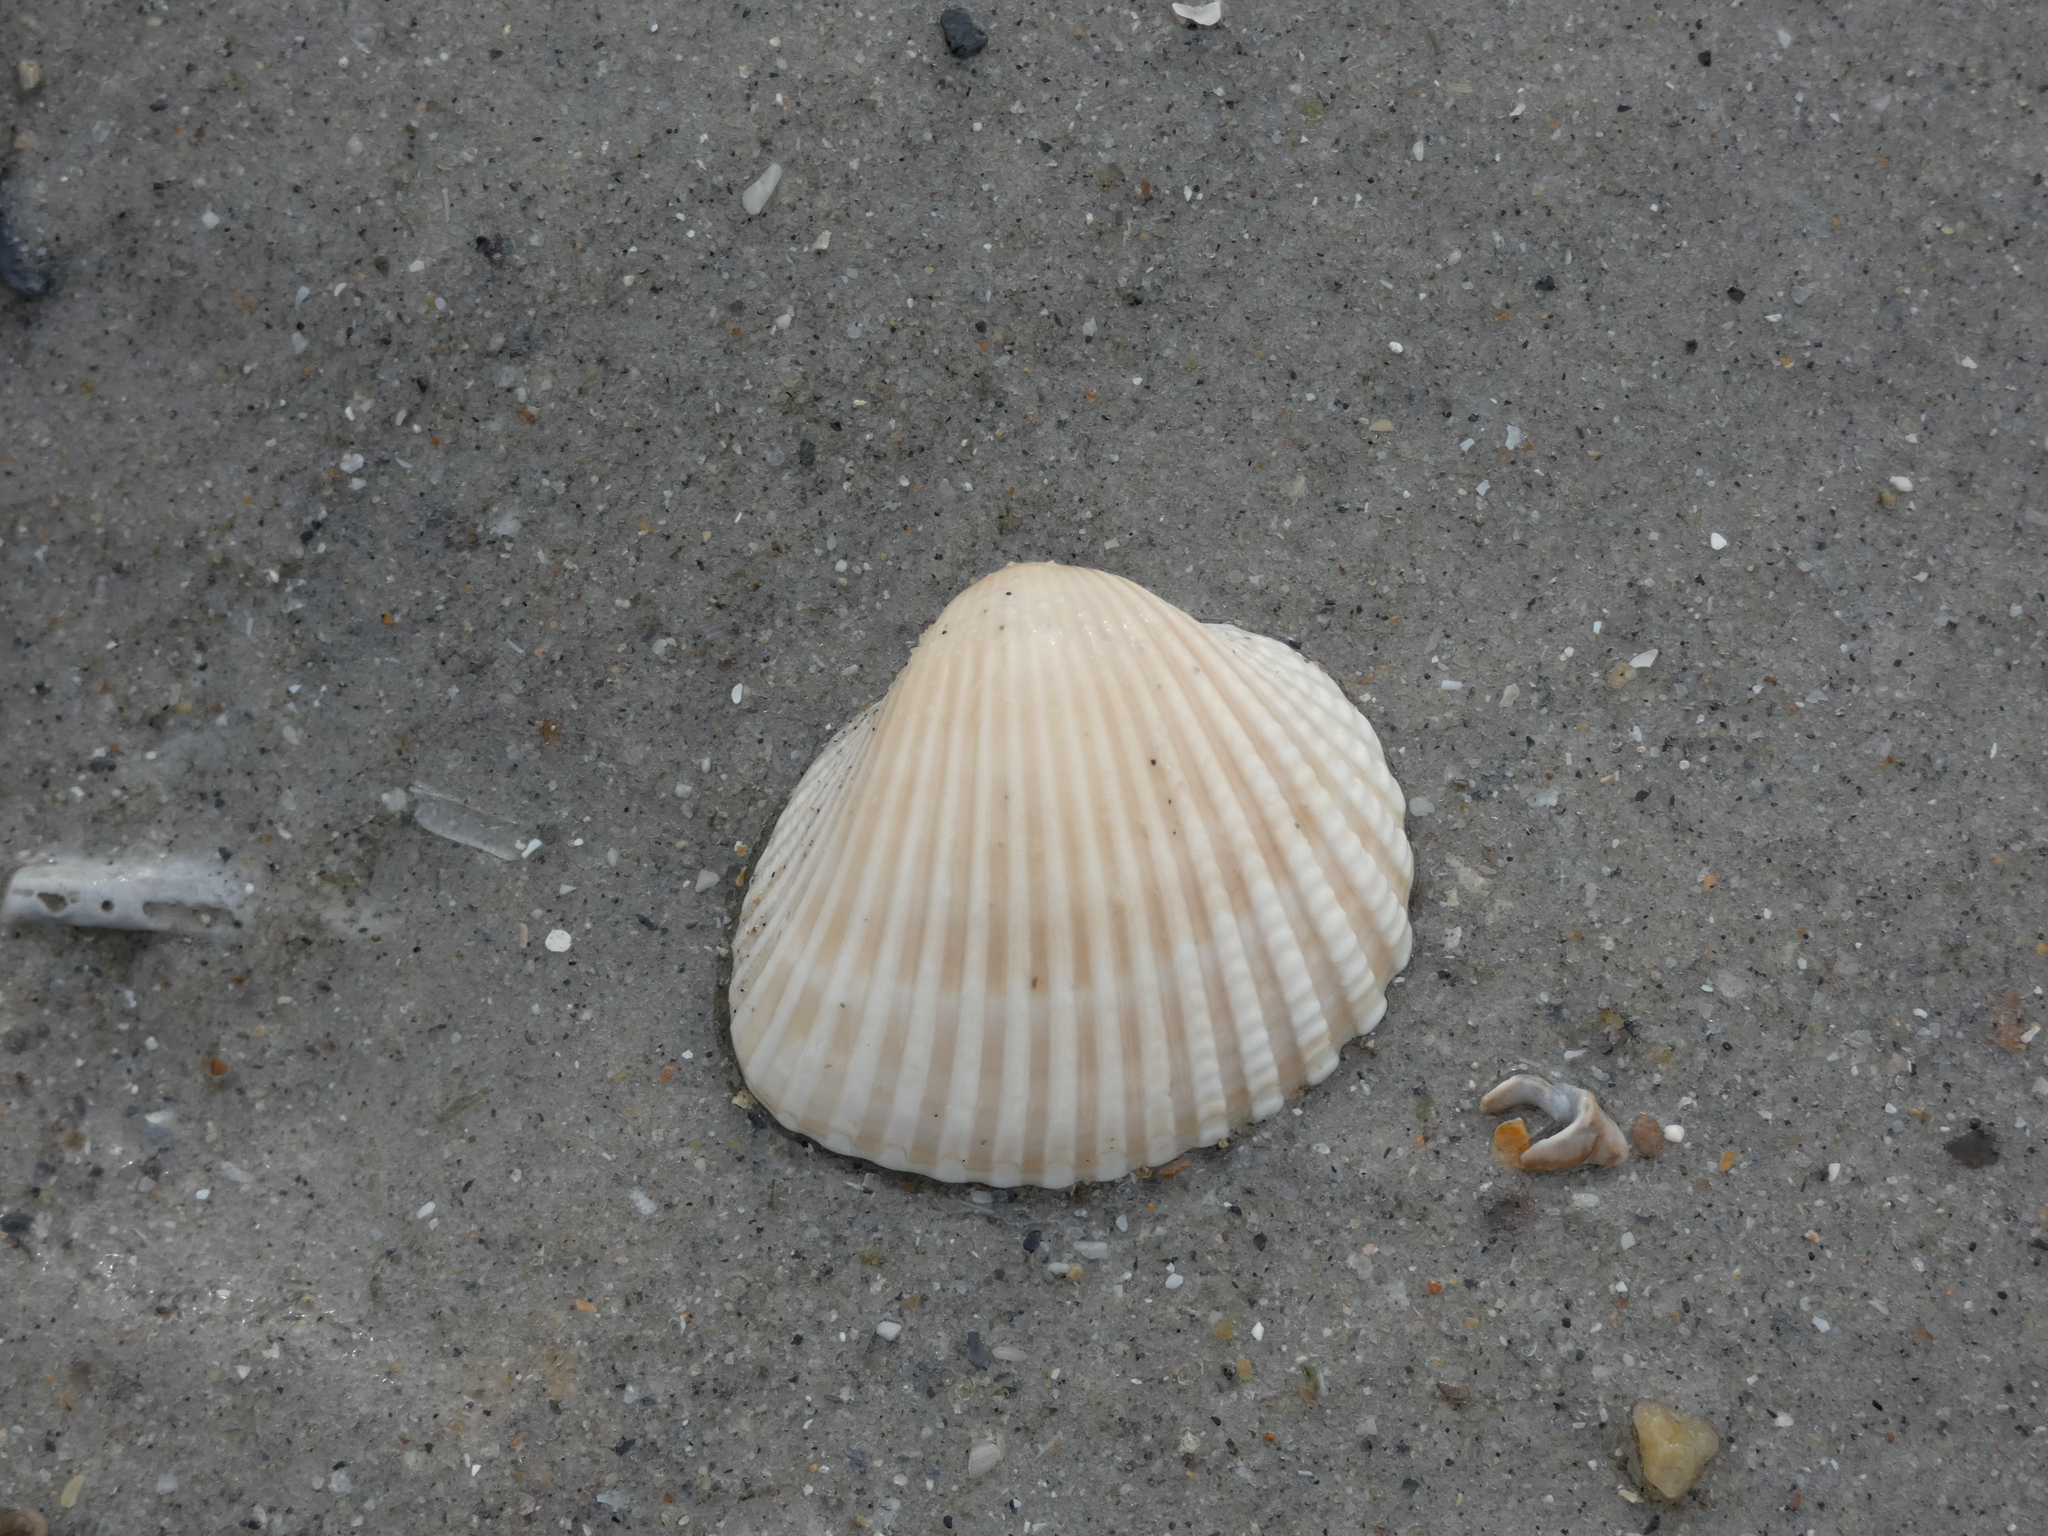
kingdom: Animalia
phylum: Mollusca
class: Bivalvia
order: Arcida
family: Arcidae
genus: Anadara
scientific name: Anadara brasiliana
